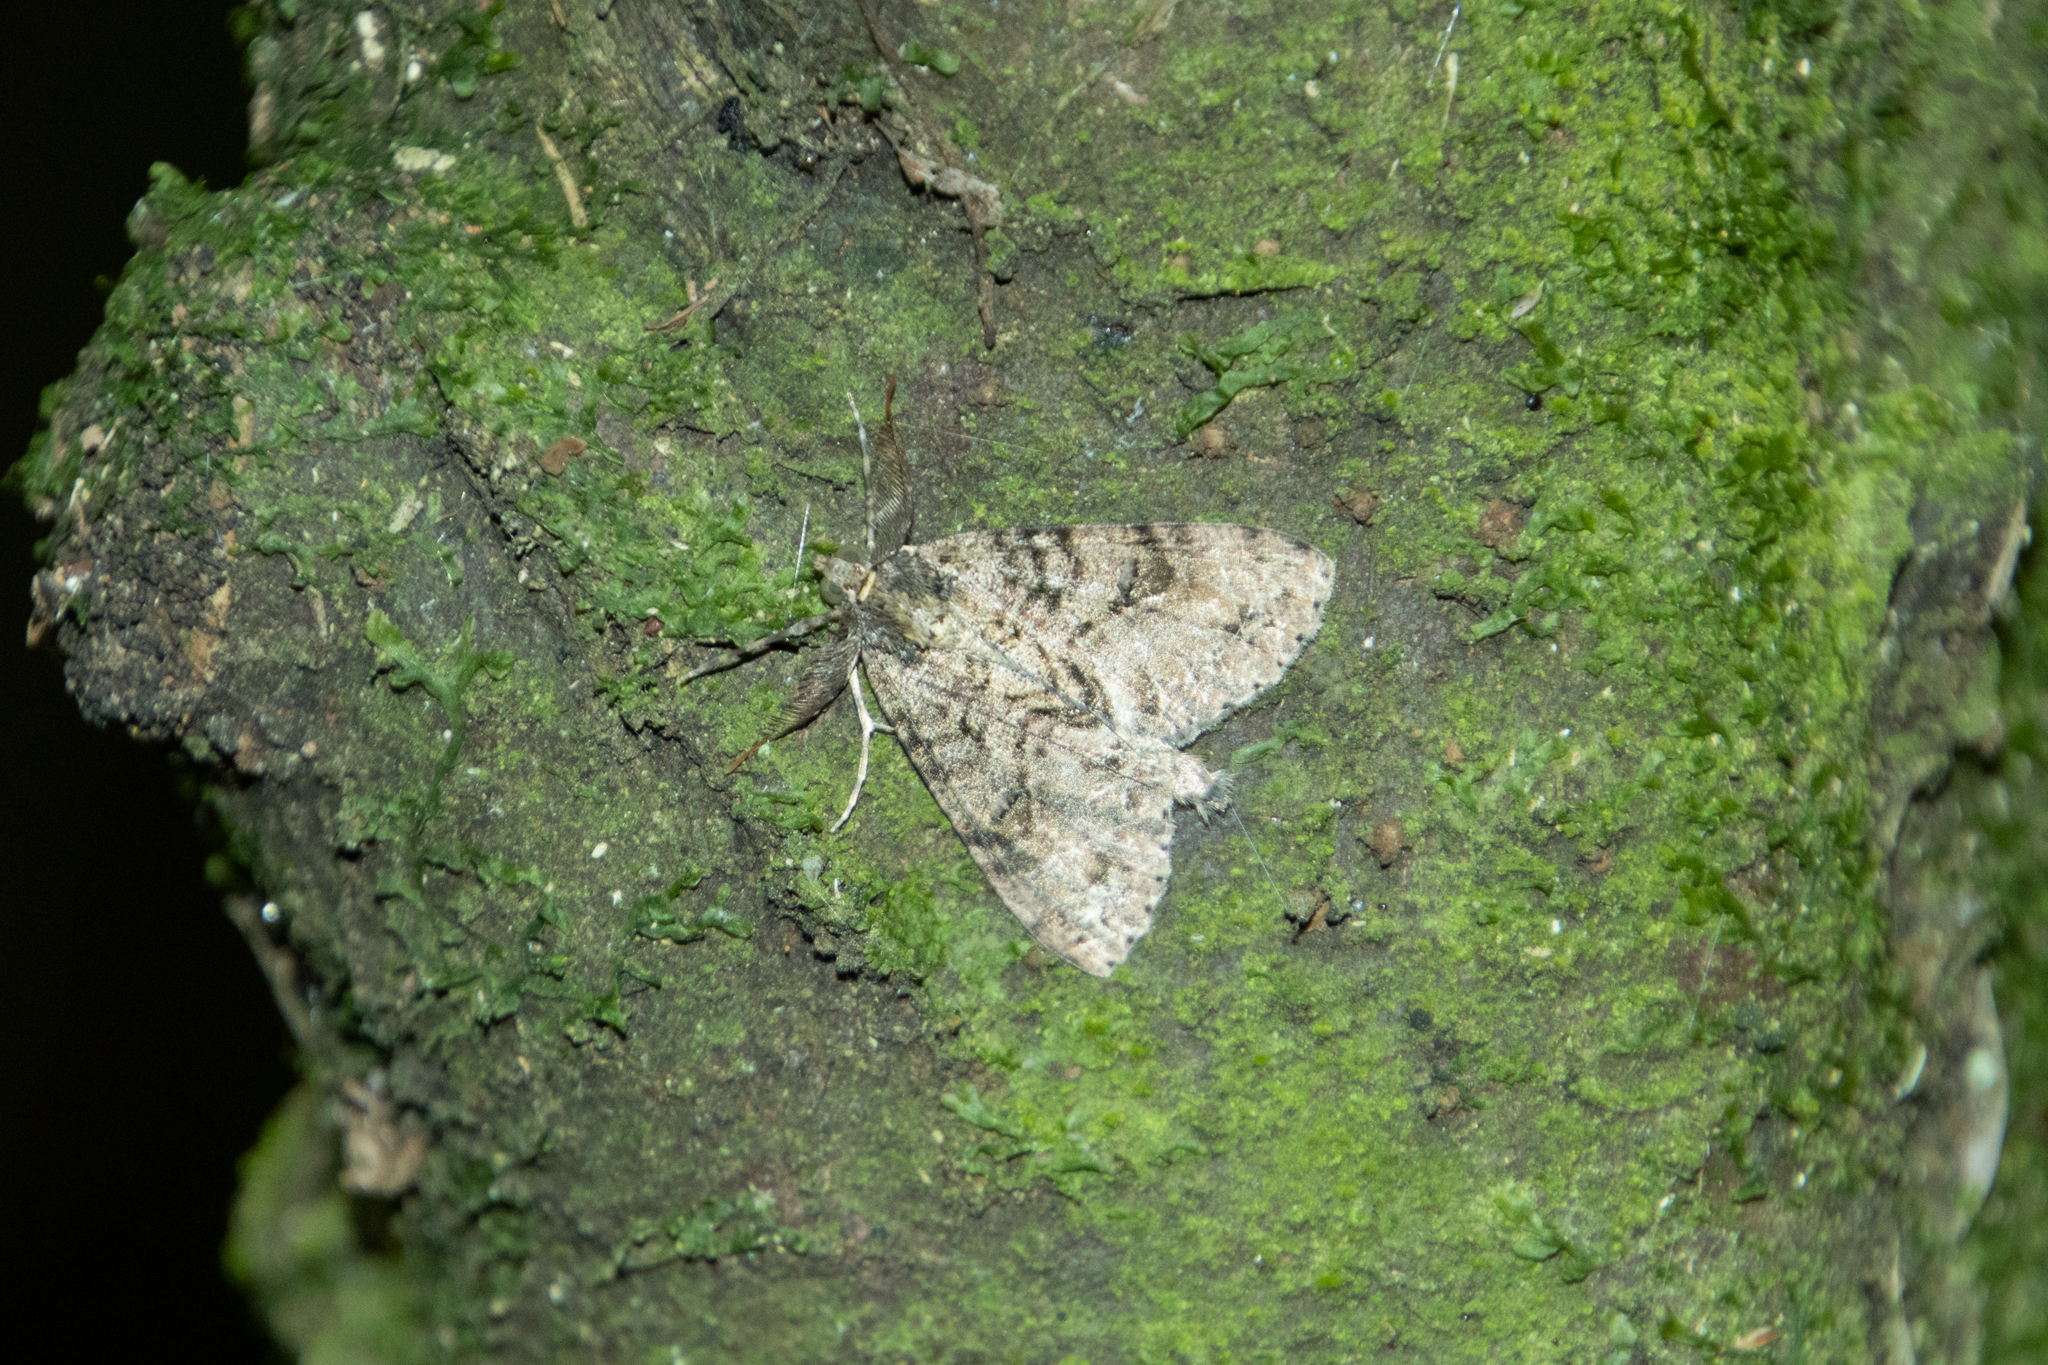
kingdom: Animalia
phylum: Arthropoda
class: Insecta
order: Lepidoptera
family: Geometridae
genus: Pseudocoremia
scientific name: Pseudocoremia suavis
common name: Common forest looper
